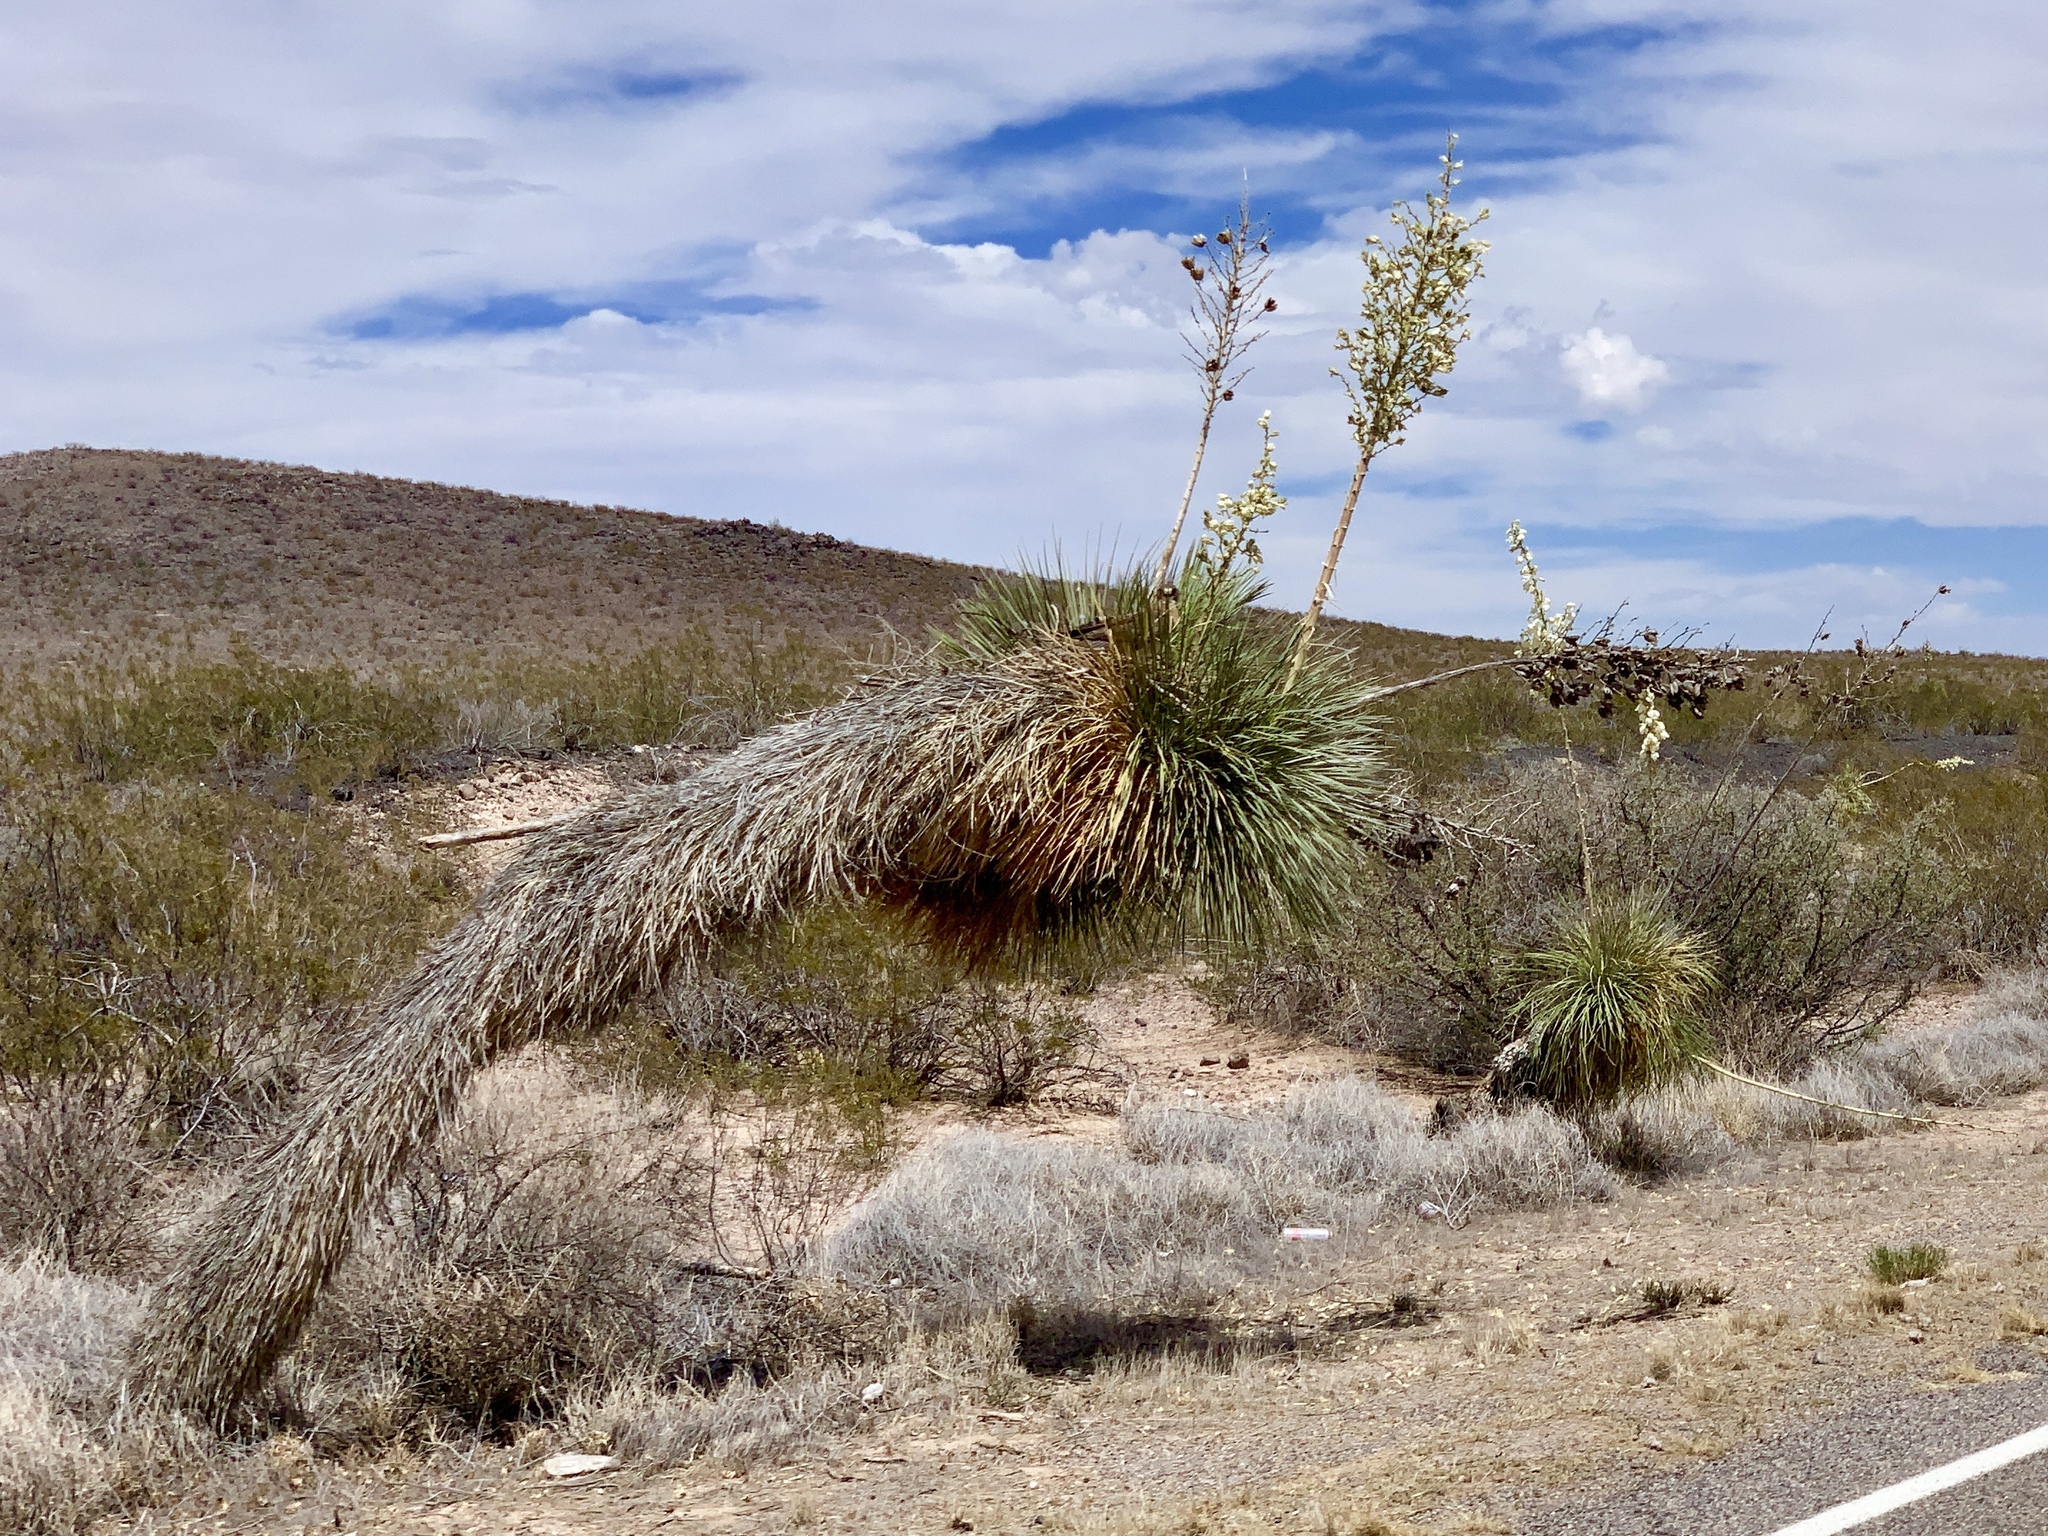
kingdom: Plantae
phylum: Tracheophyta
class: Liliopsida
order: Asparagales
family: Asparagaceae
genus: Yucca
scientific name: Yucca elata
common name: Palmella
